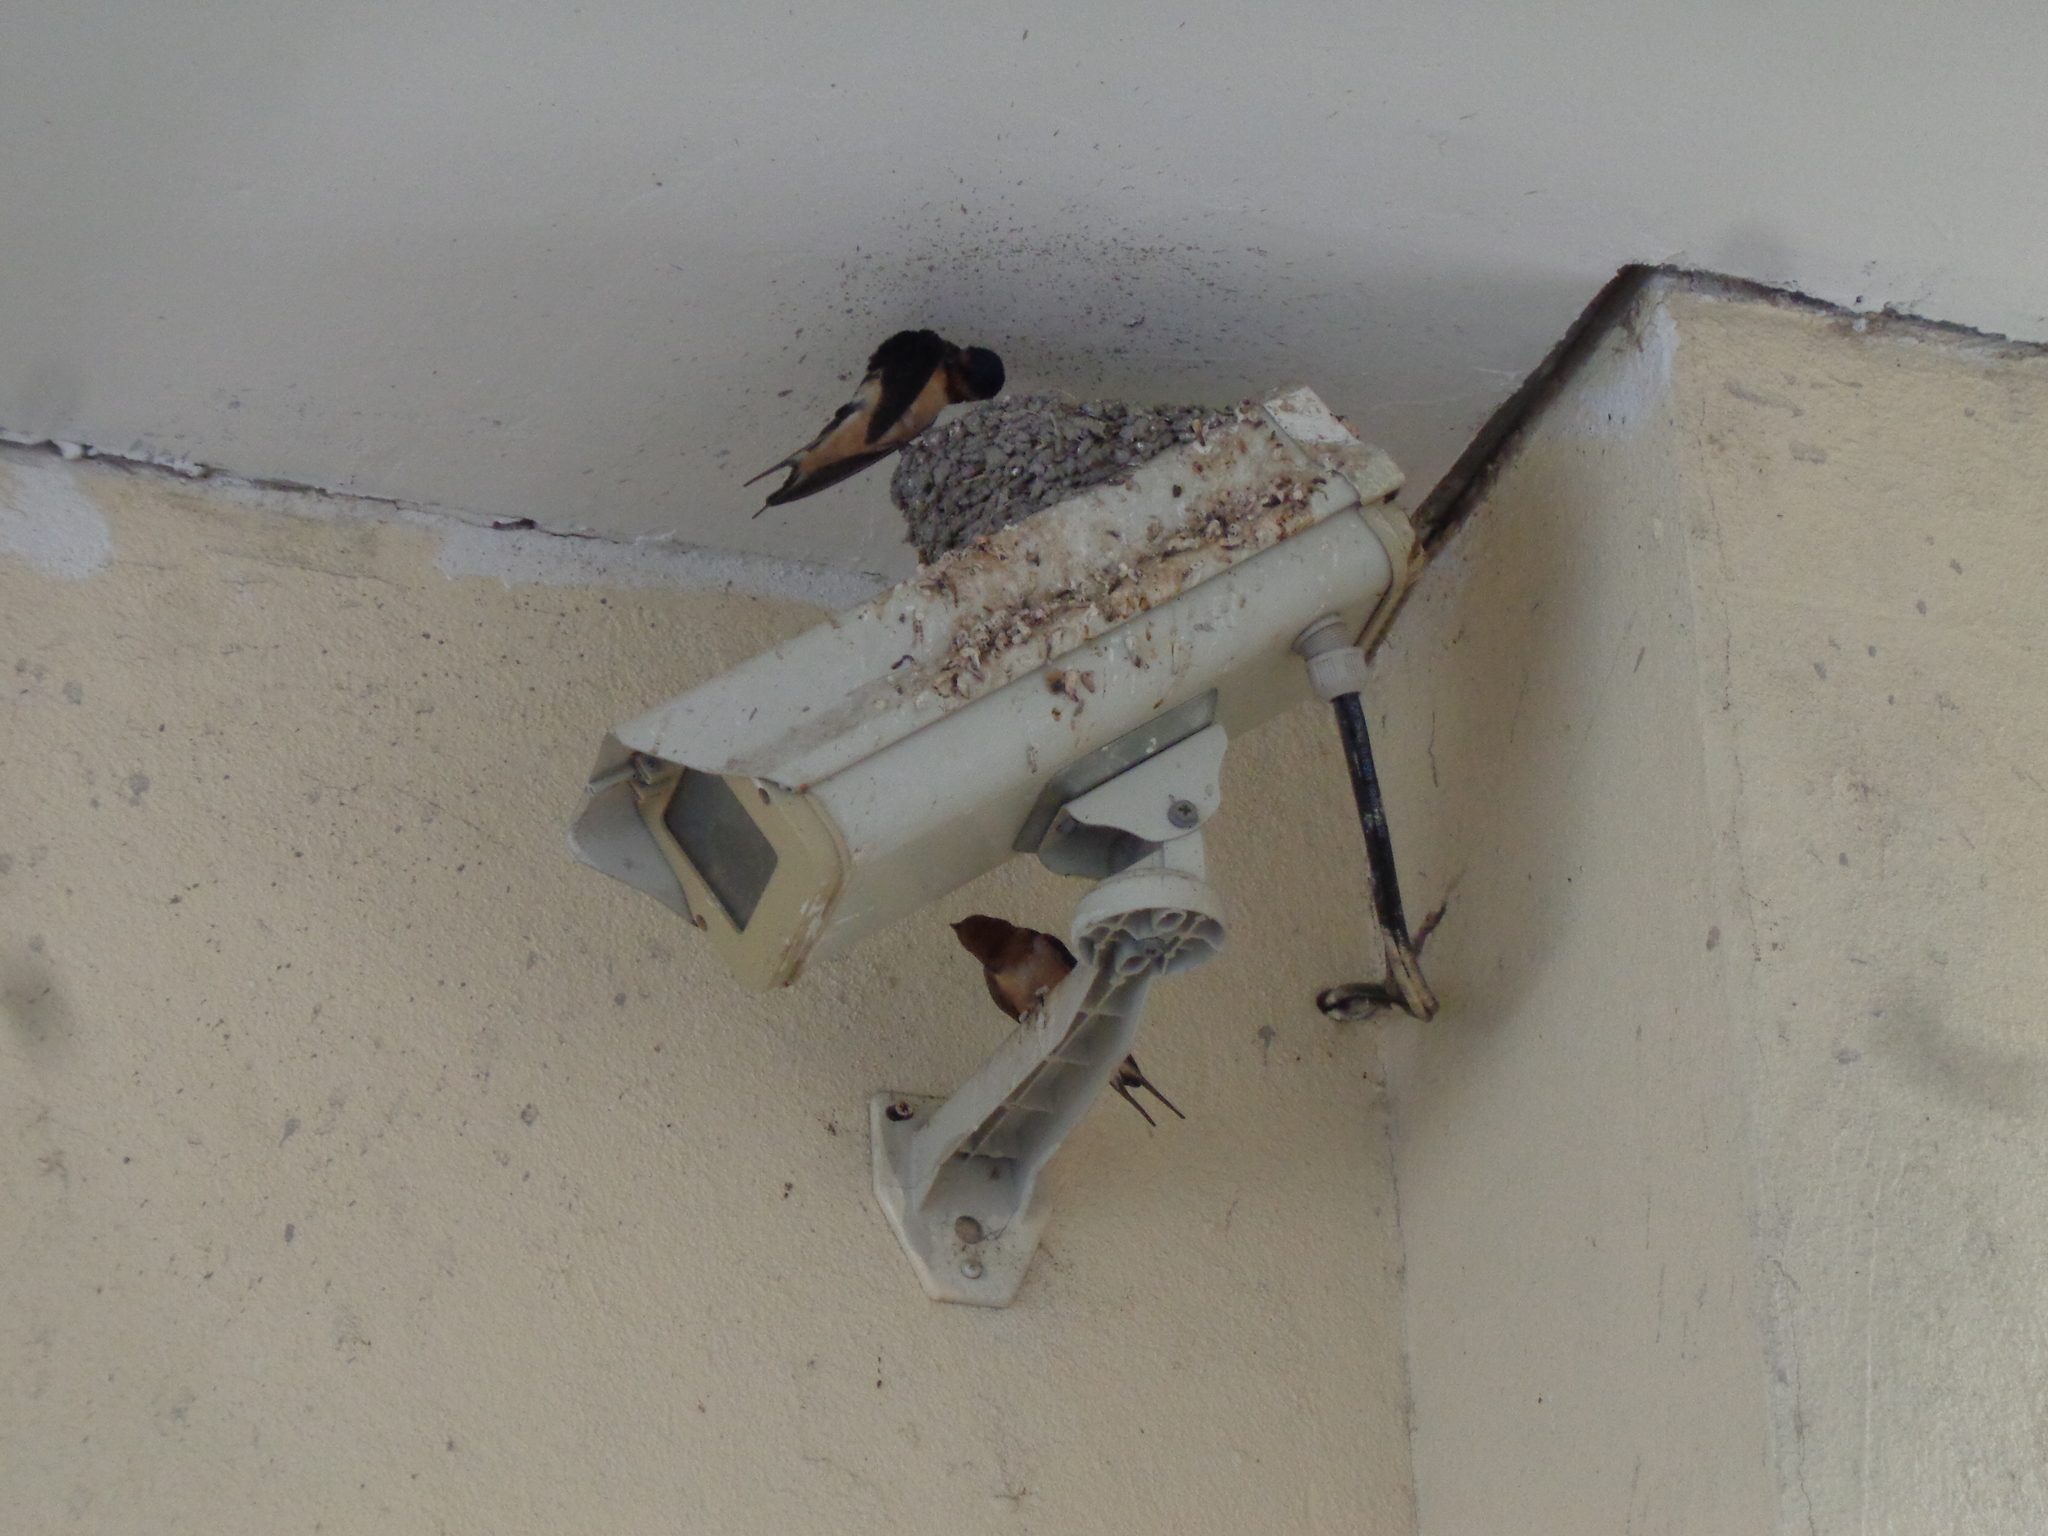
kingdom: Animalia
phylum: Chordata
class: Aves
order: Passeriformes
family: Hirundinidae
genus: Hirundo
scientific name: Hirundo rustica
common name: Barn swallow
